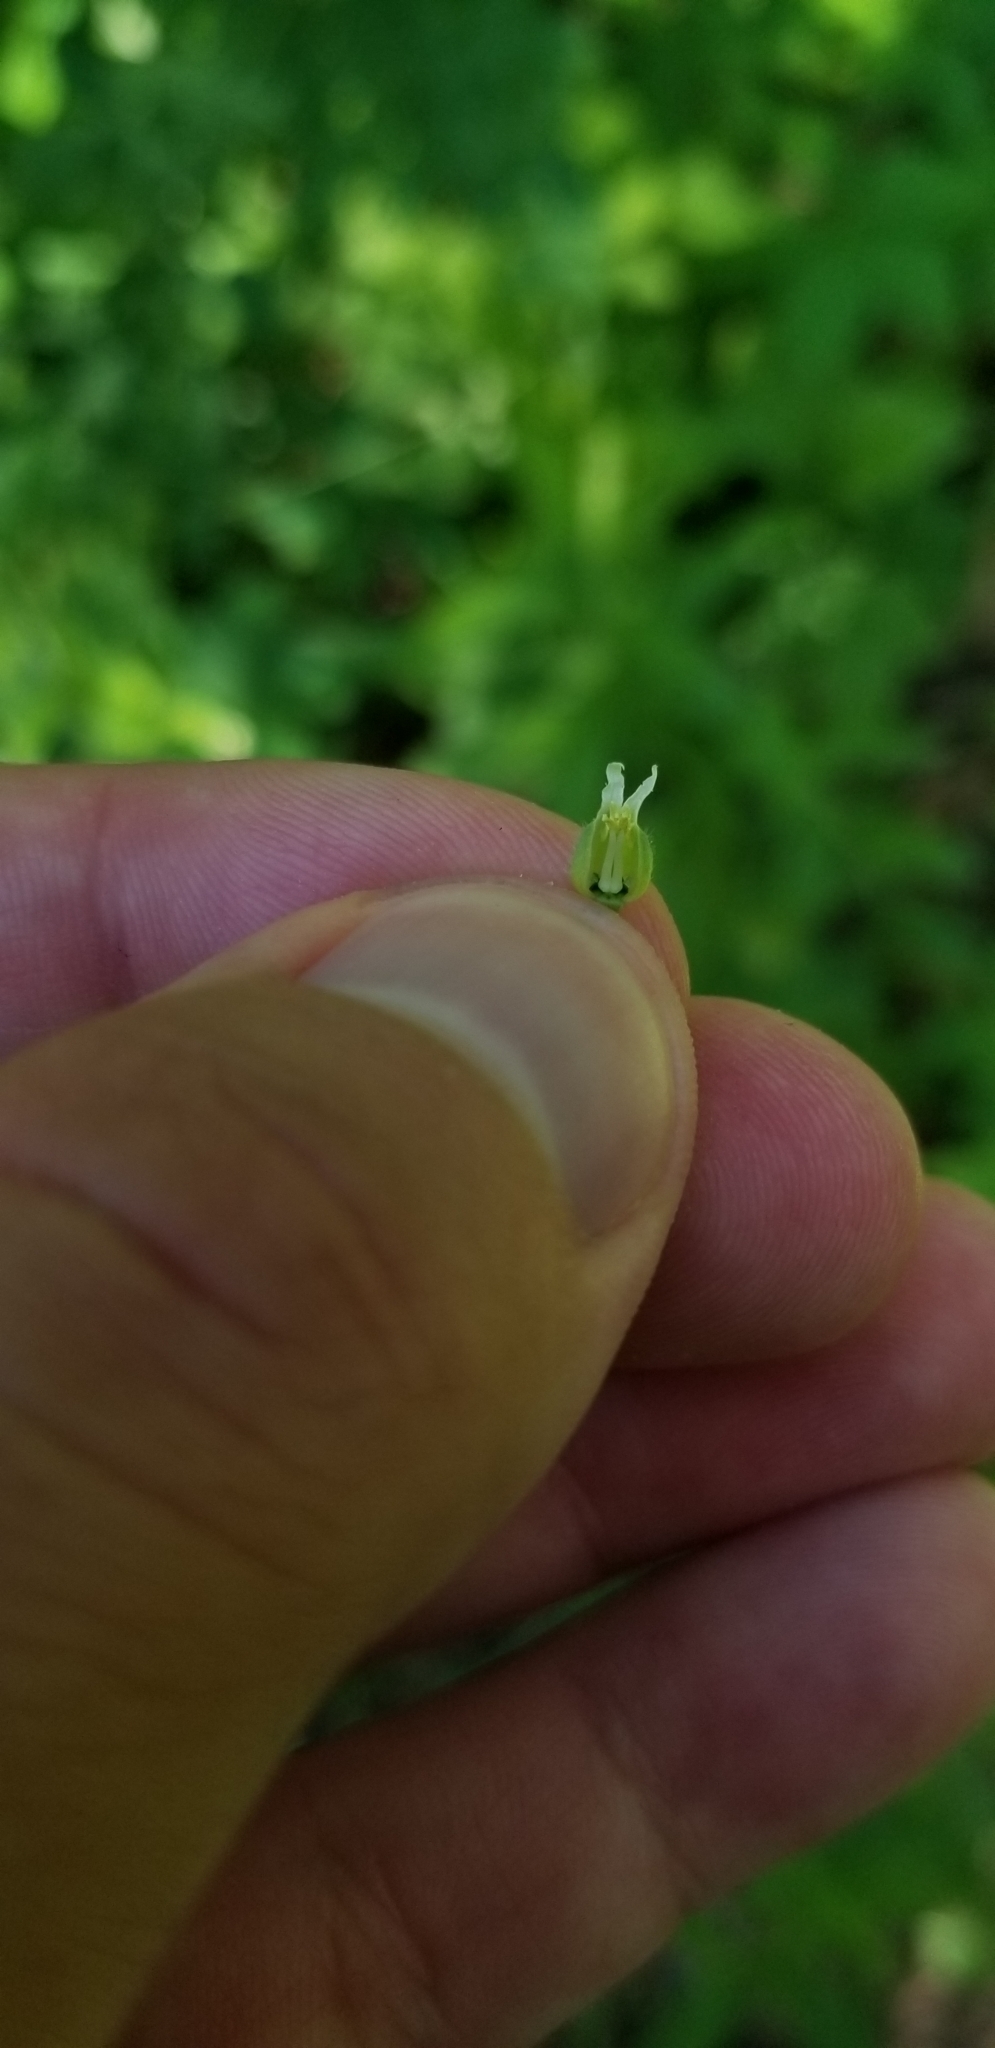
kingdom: Plantae
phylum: Tracheophyta
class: Magnoliopsida
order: Brassicales
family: Brassicaceae
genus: Borodinia
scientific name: Borodinia canadensis
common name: Sicklepod
